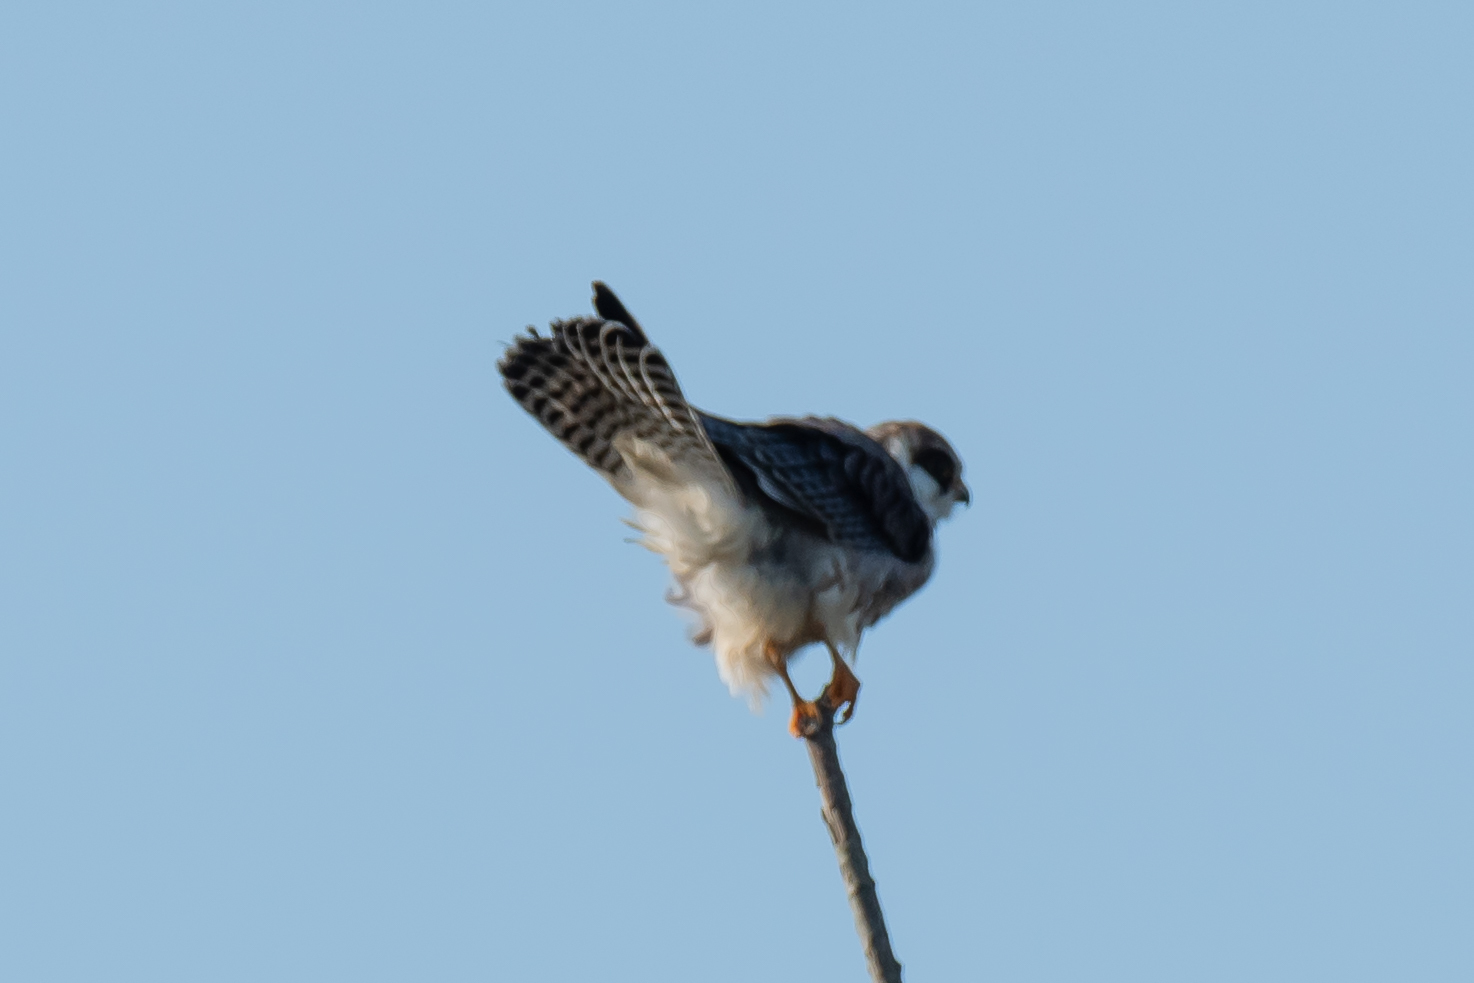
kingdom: Animalia
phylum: Chordata
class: Aves
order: Falconiformes
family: Falconidae
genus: Falco
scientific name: Falco vespertinus
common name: Red-footed falcon
